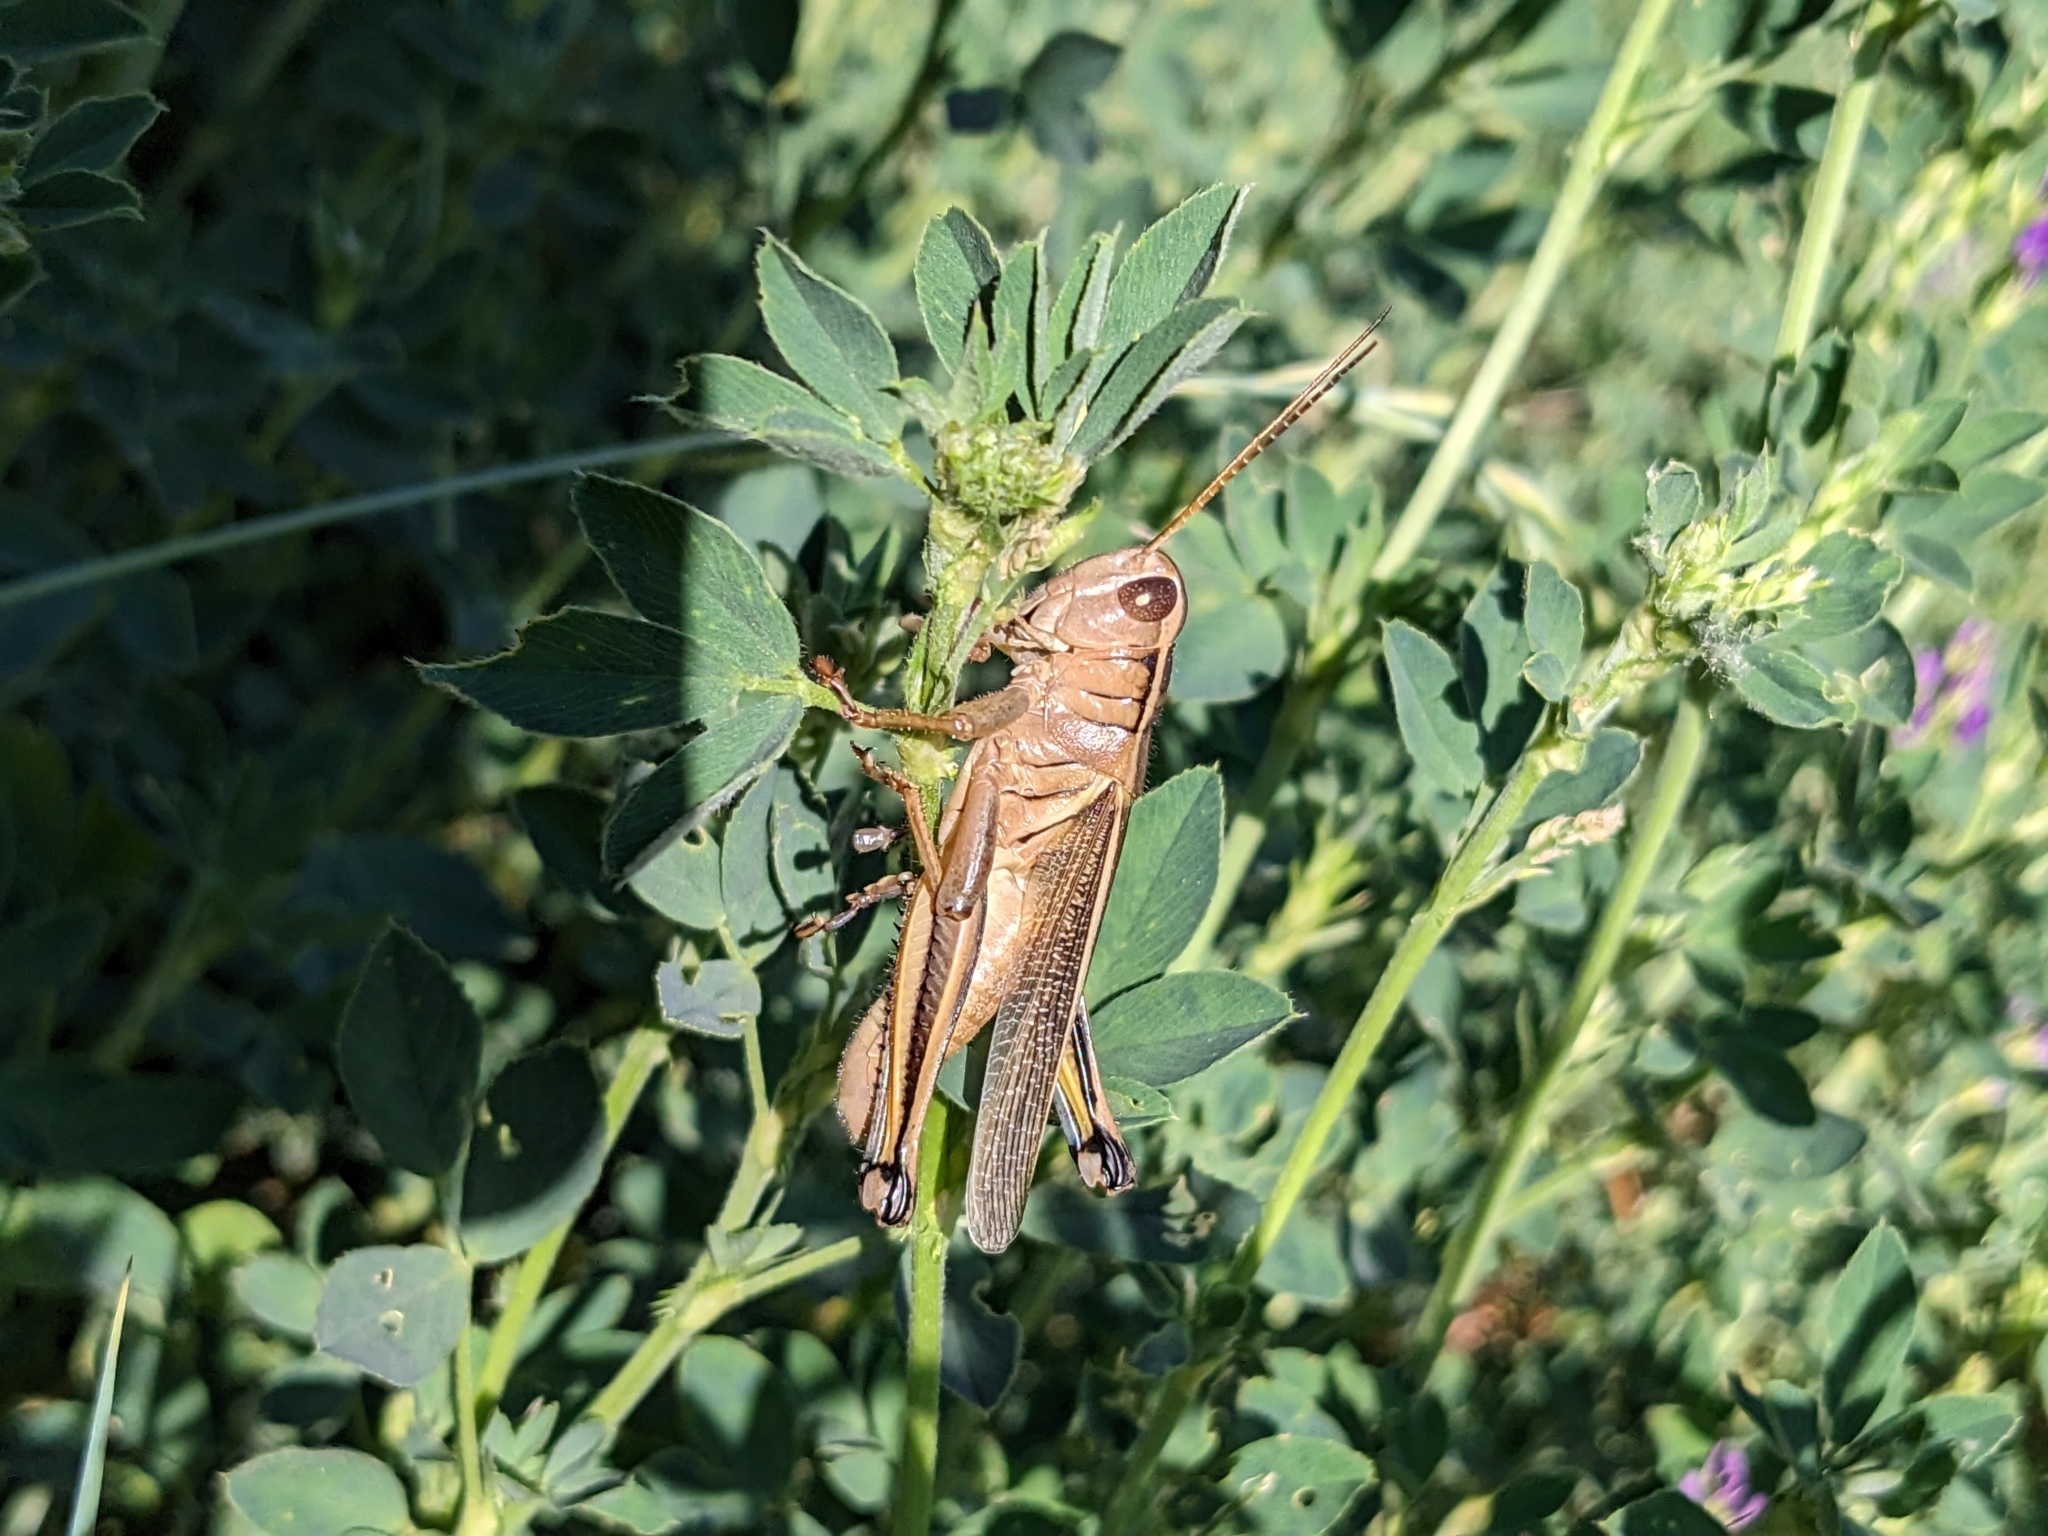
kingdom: Animalia
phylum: Arthropoda
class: Insecta
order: Orthoptera
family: Acrididae
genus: Melanoplus
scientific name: Melanoplus bivittatus
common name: Two-striped grasshopper
